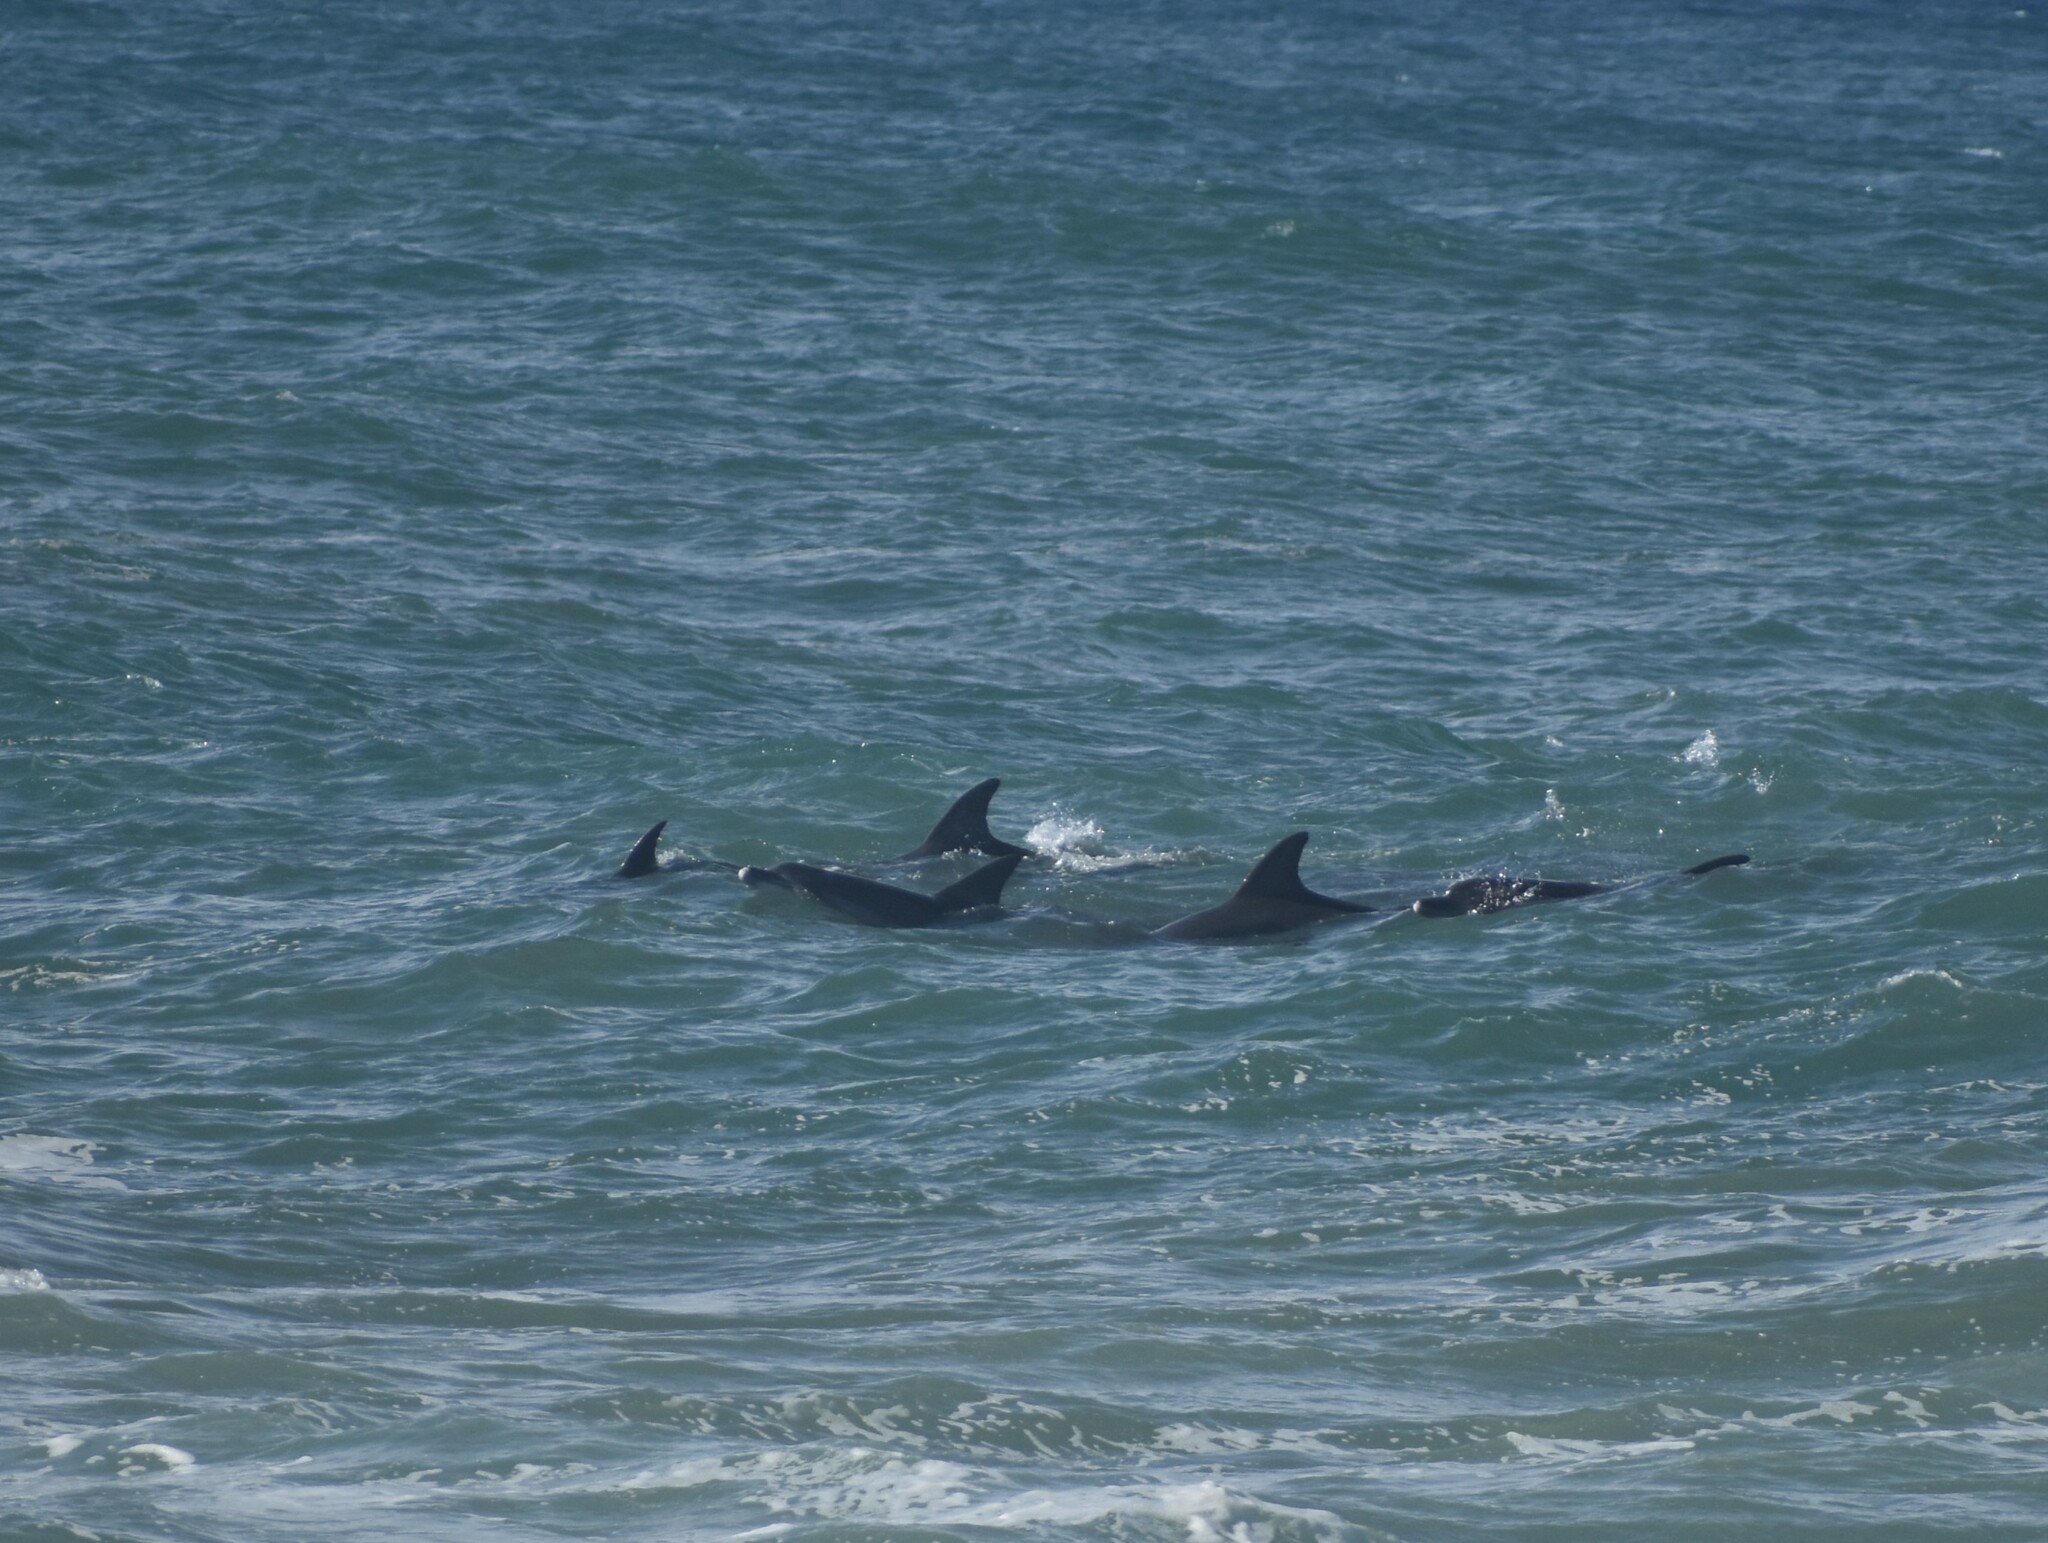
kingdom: Animalia
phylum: Chordata
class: Mammalia
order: Cetacea
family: Delphinidae
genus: Tursiops
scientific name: Tursiops truncatus
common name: Bottlenose dolphin
